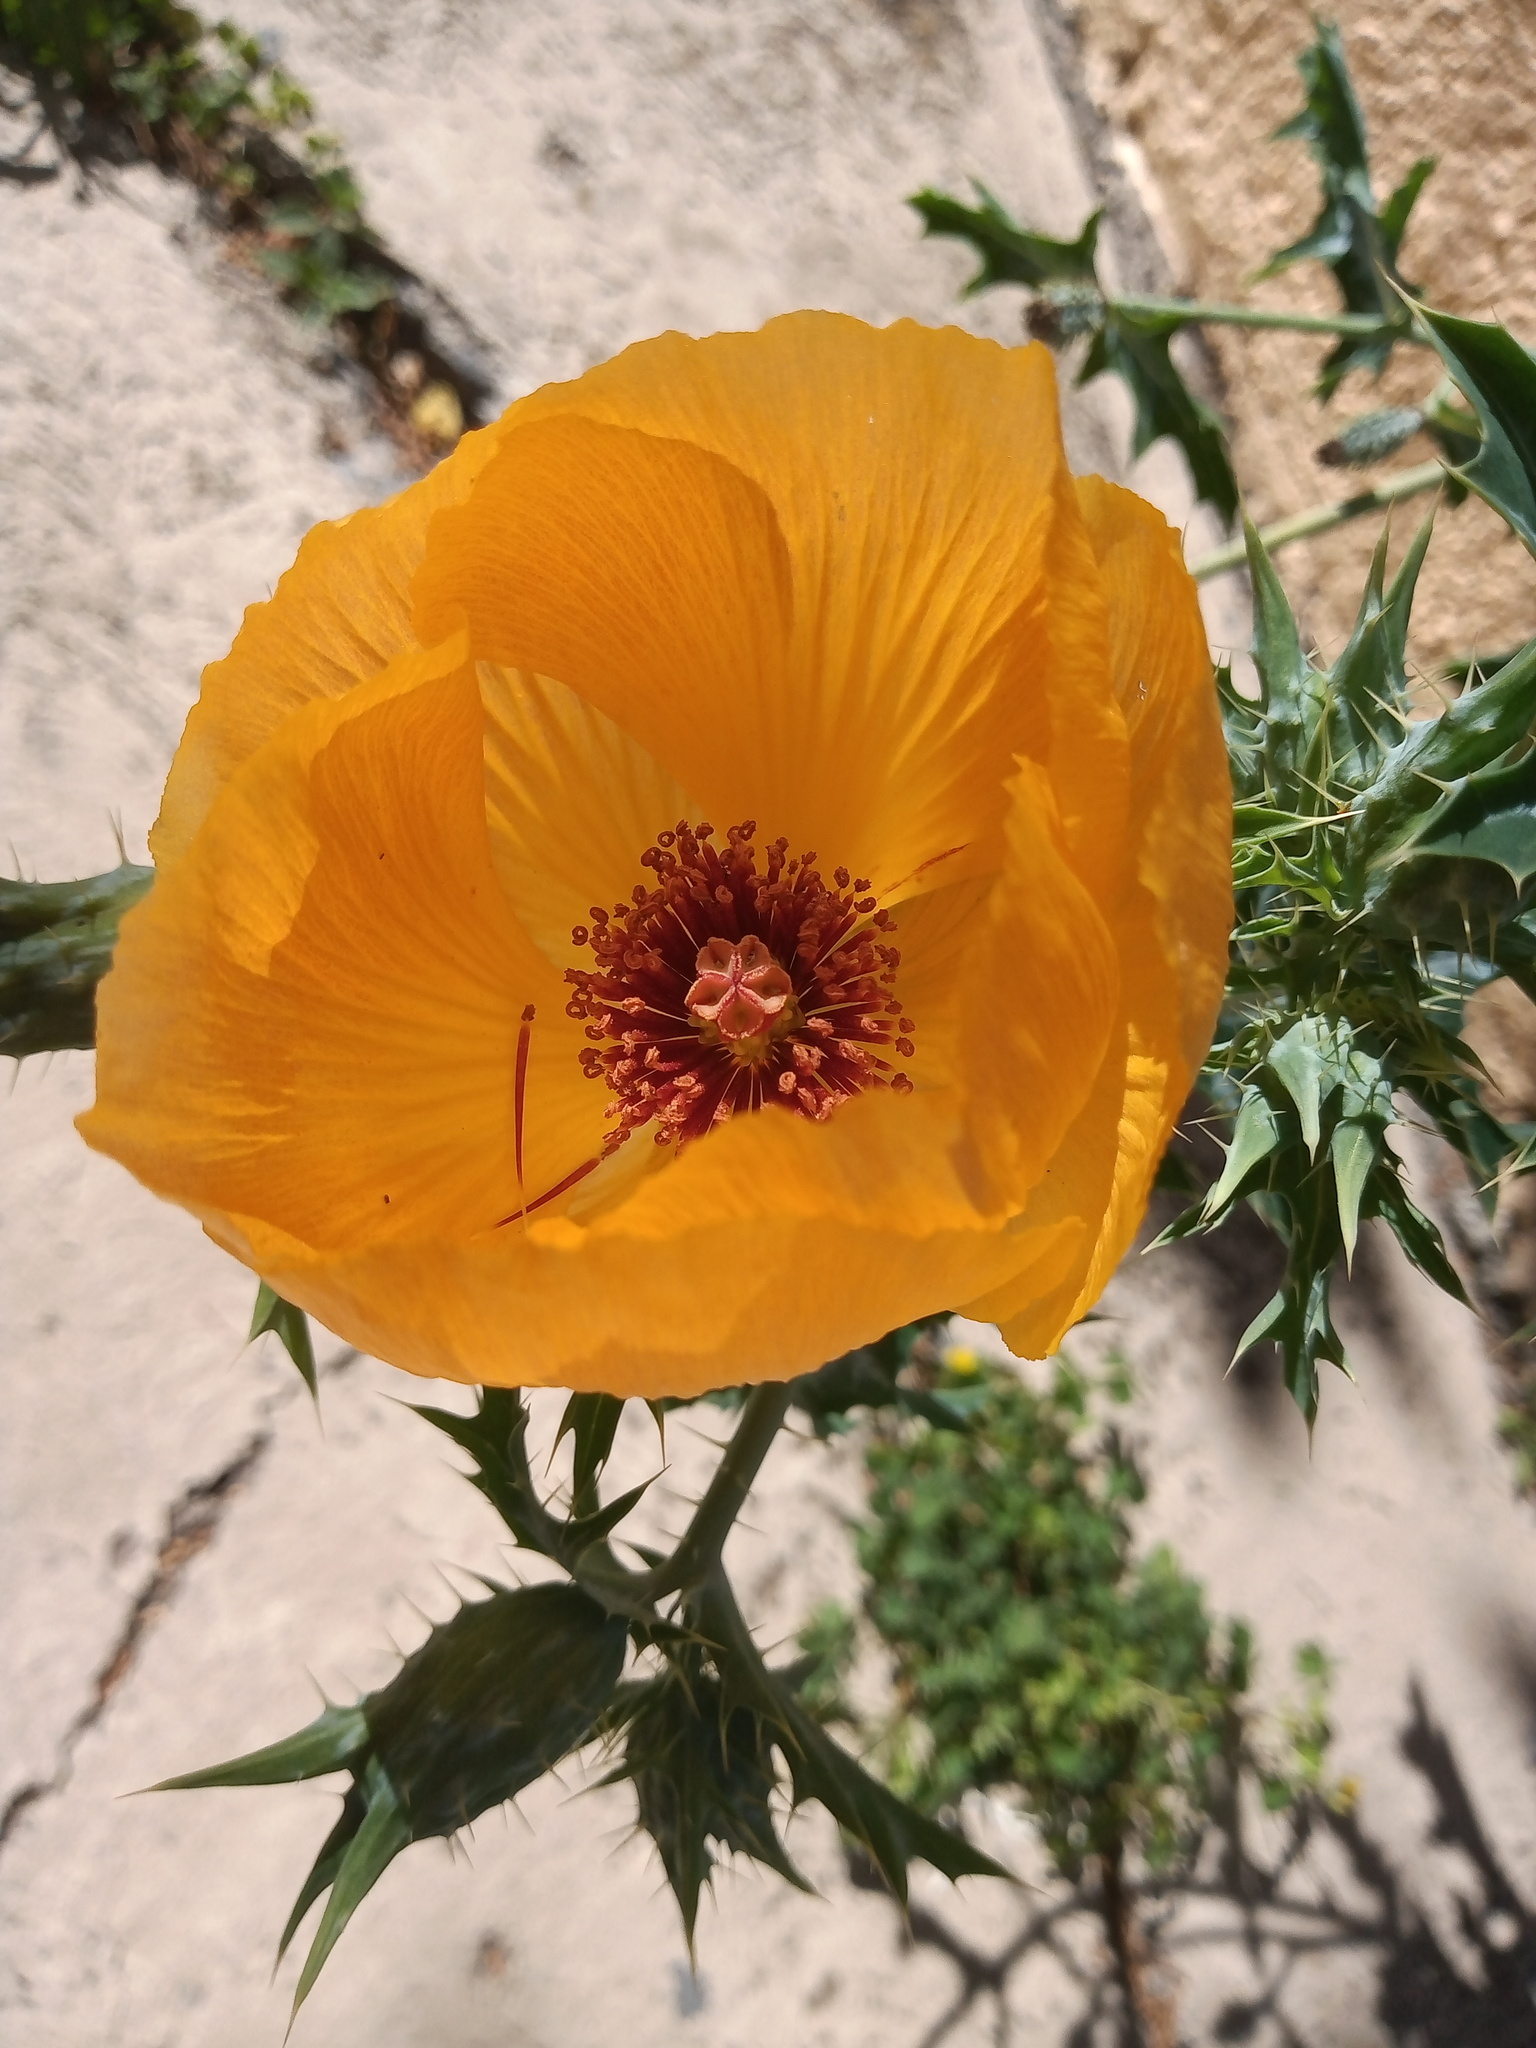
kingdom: Plantae
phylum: Tracheophyta
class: Magnoliopsida
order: Ranunculales
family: Papaveraceae
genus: Argemone
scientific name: Argemone aenea
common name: Golden prickly-poppy
